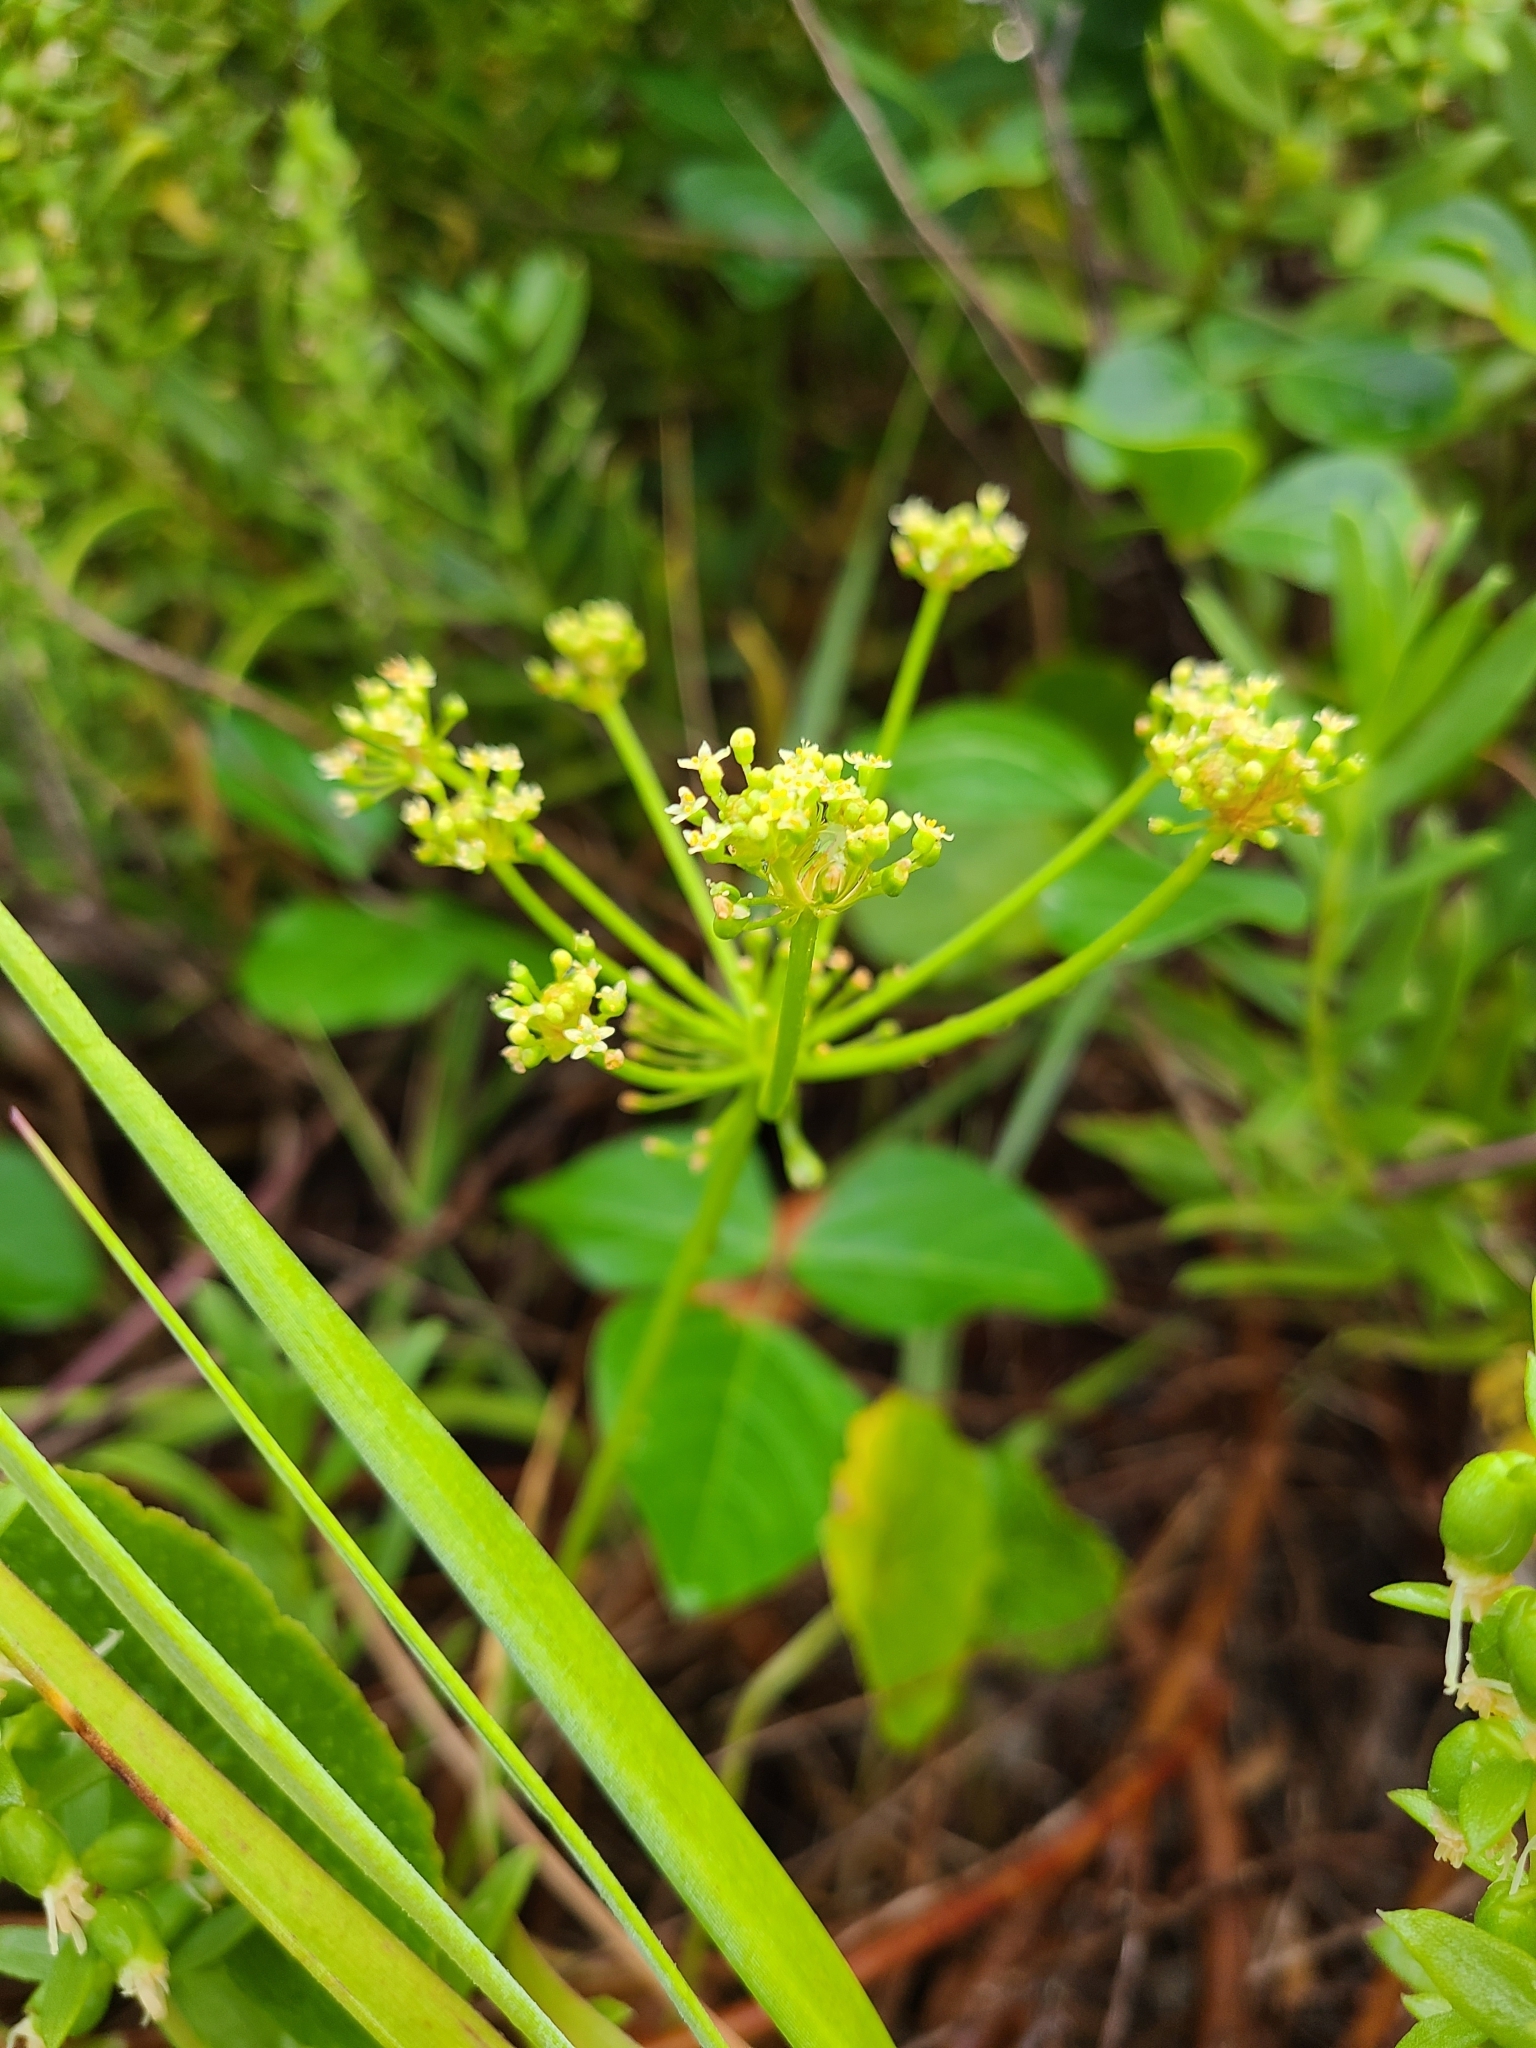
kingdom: Plantae
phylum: Tracheophyta
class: Magnoliopsida
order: Apiales
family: Araliaceae
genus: Hydrocotyle
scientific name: Hydrocotyle bonariensis
